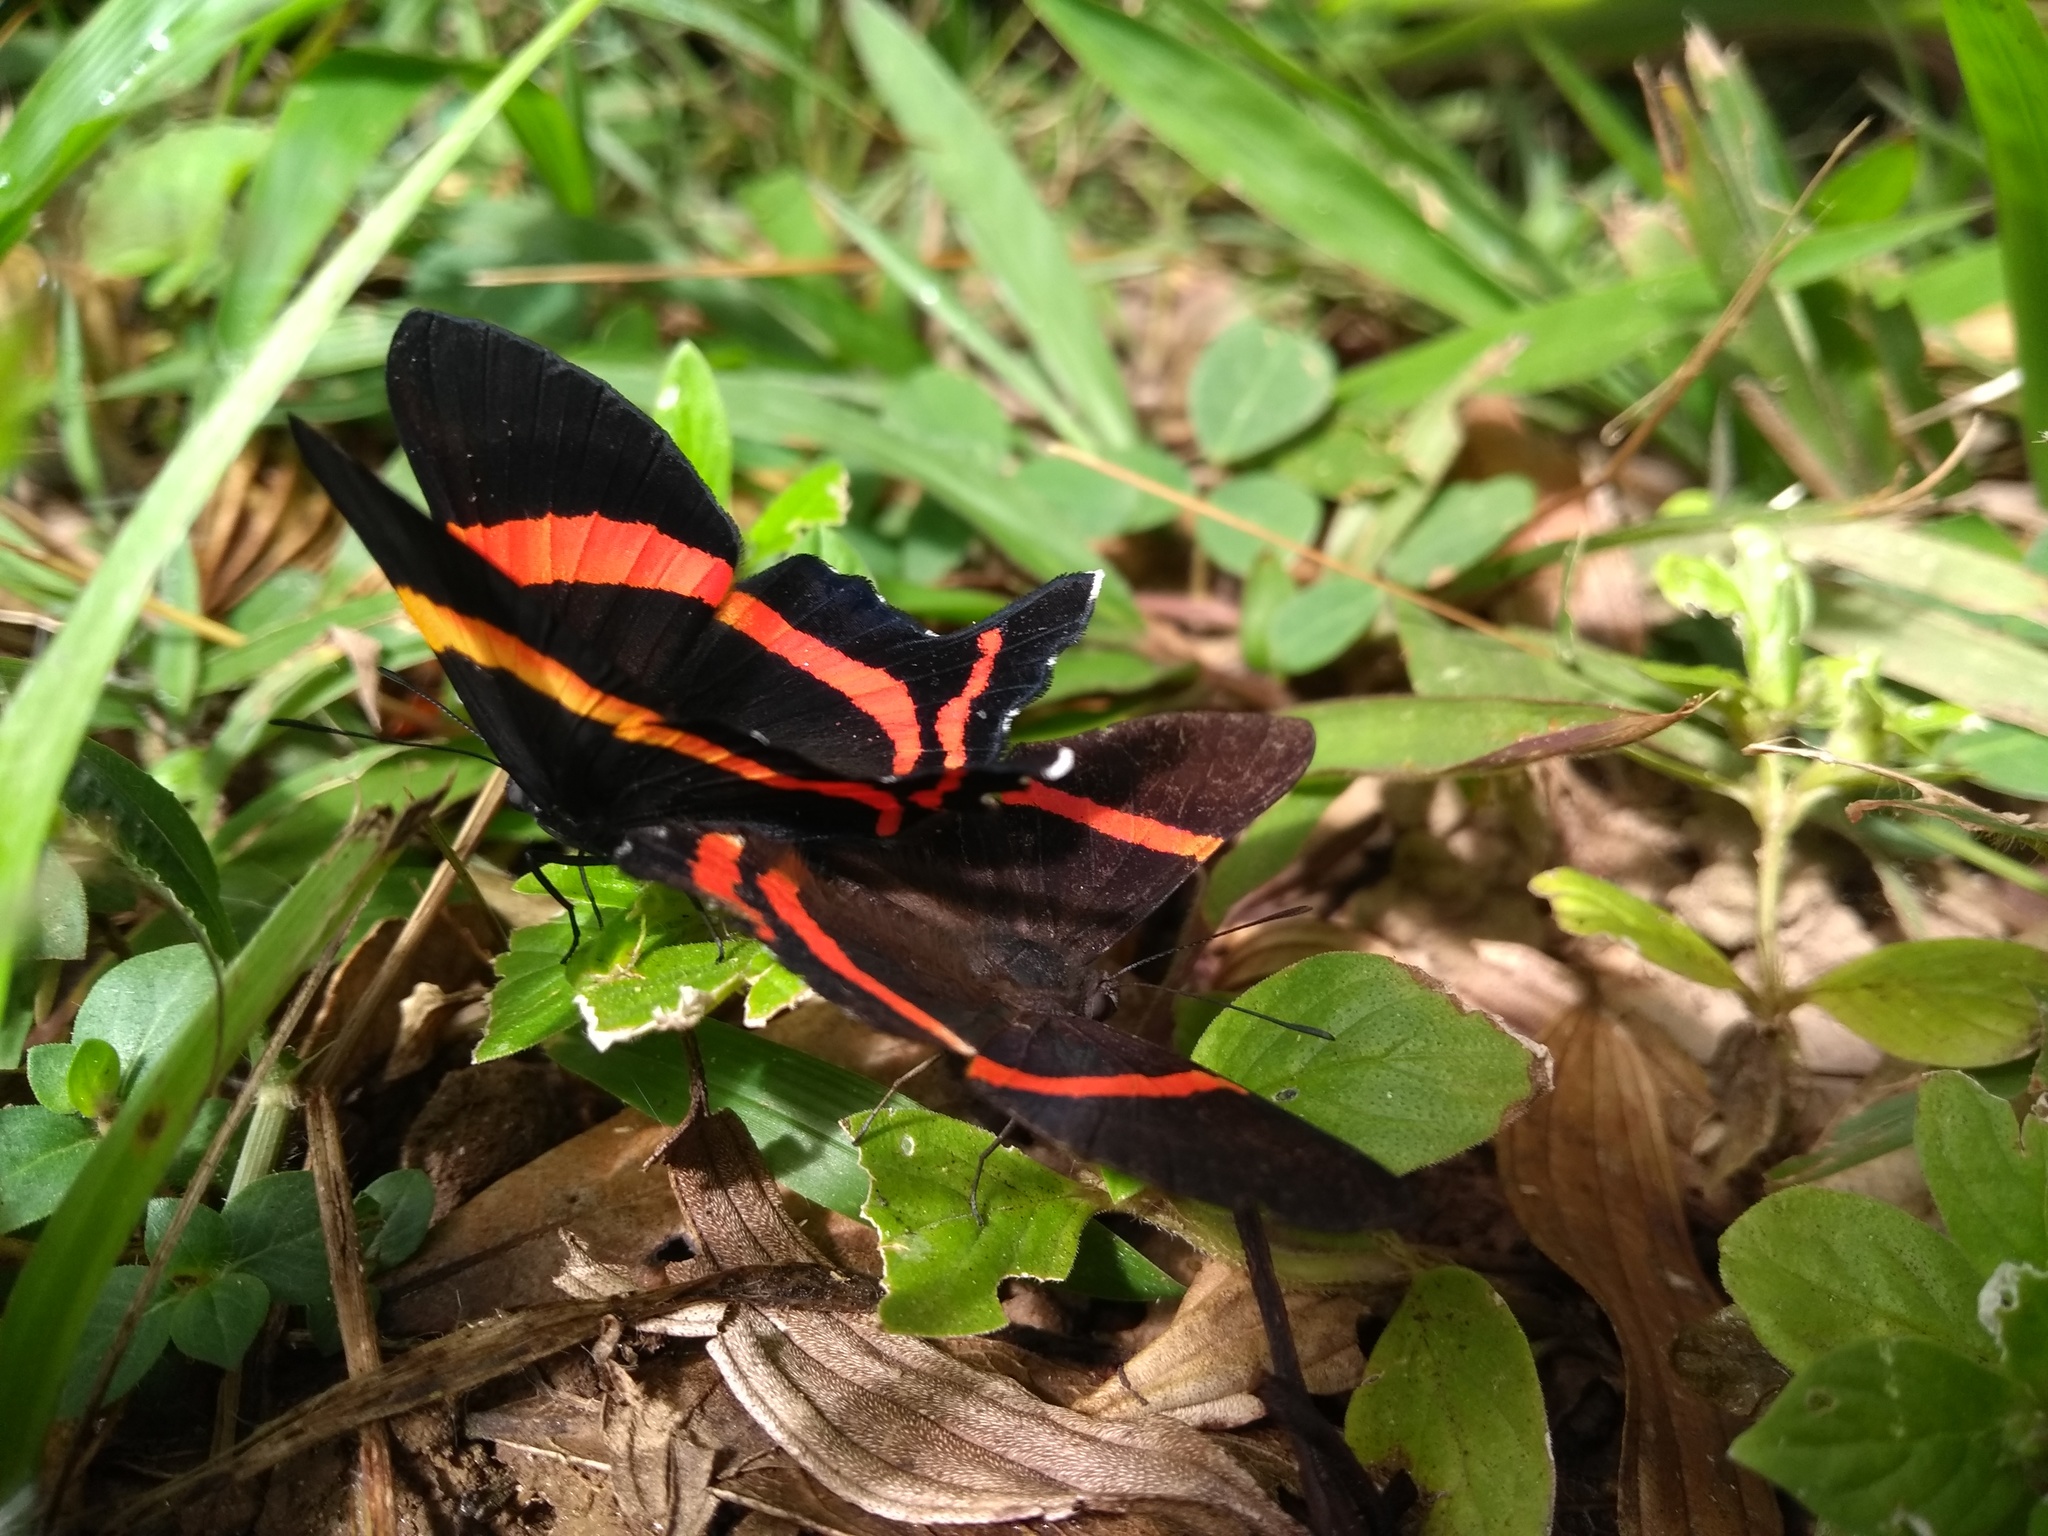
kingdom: Animalia
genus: Ancyluris
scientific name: Ancyluris aulestes
